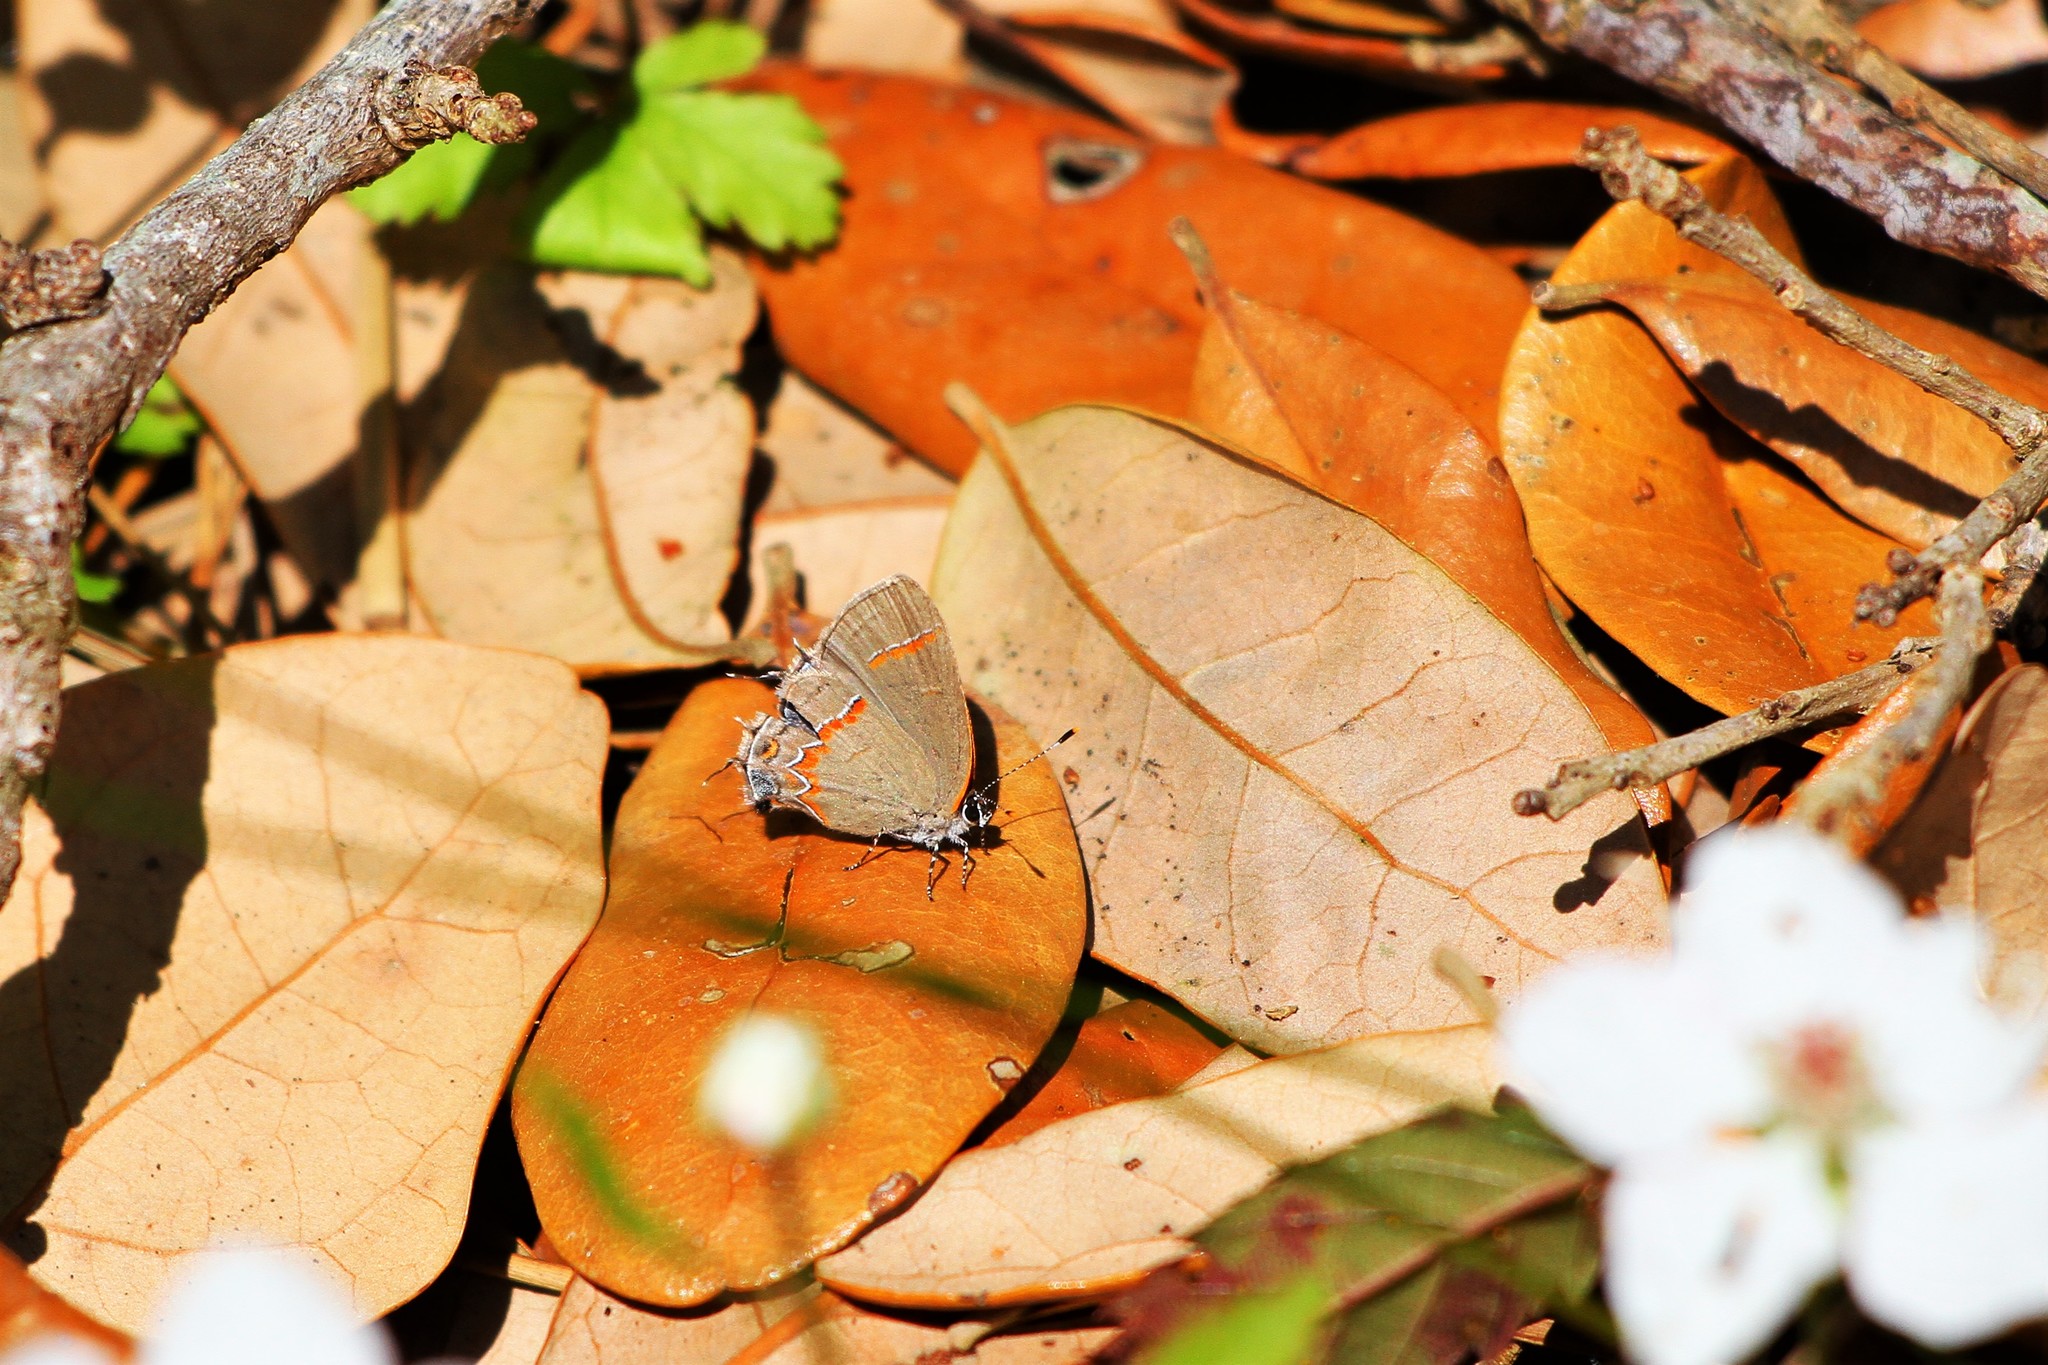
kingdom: Animalia
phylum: Arthropoda
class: Insecta
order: Lepidoptera
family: Lycaenidae
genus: Calycopis
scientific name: Calycopis cecrops
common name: Red-banded hairstreak
